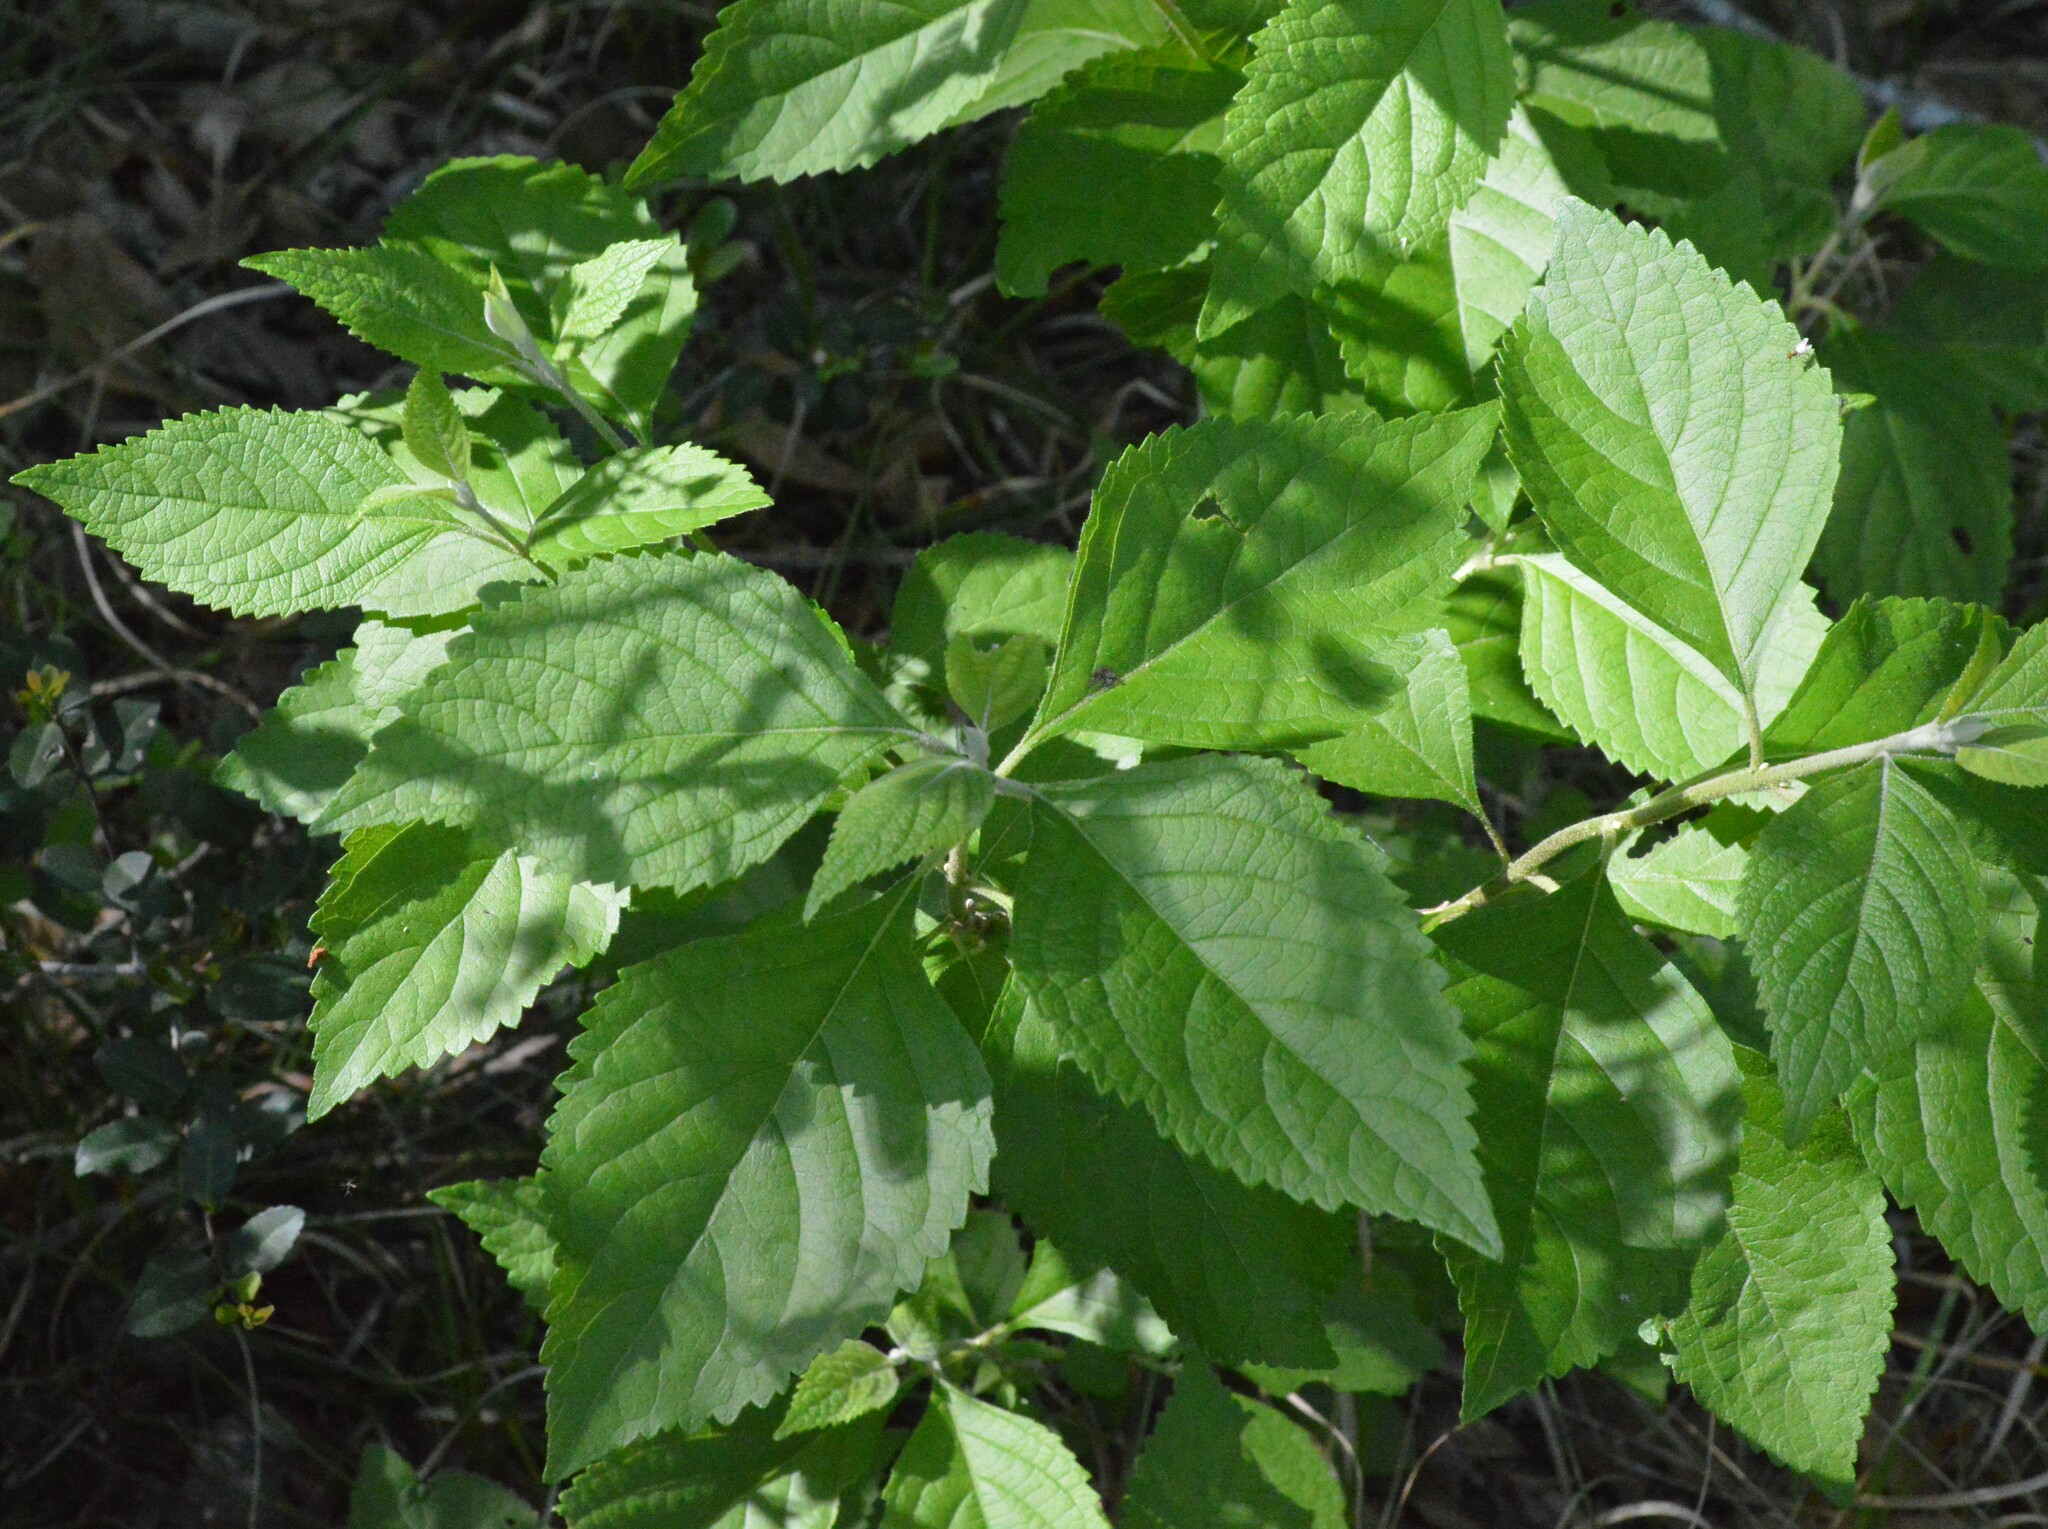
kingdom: Plantae
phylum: Tracheophyta
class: Magnoliopsida
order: Lamiales
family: Lamiaceae
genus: Callicarpa
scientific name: Callicarpa americana
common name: American beautyberry
